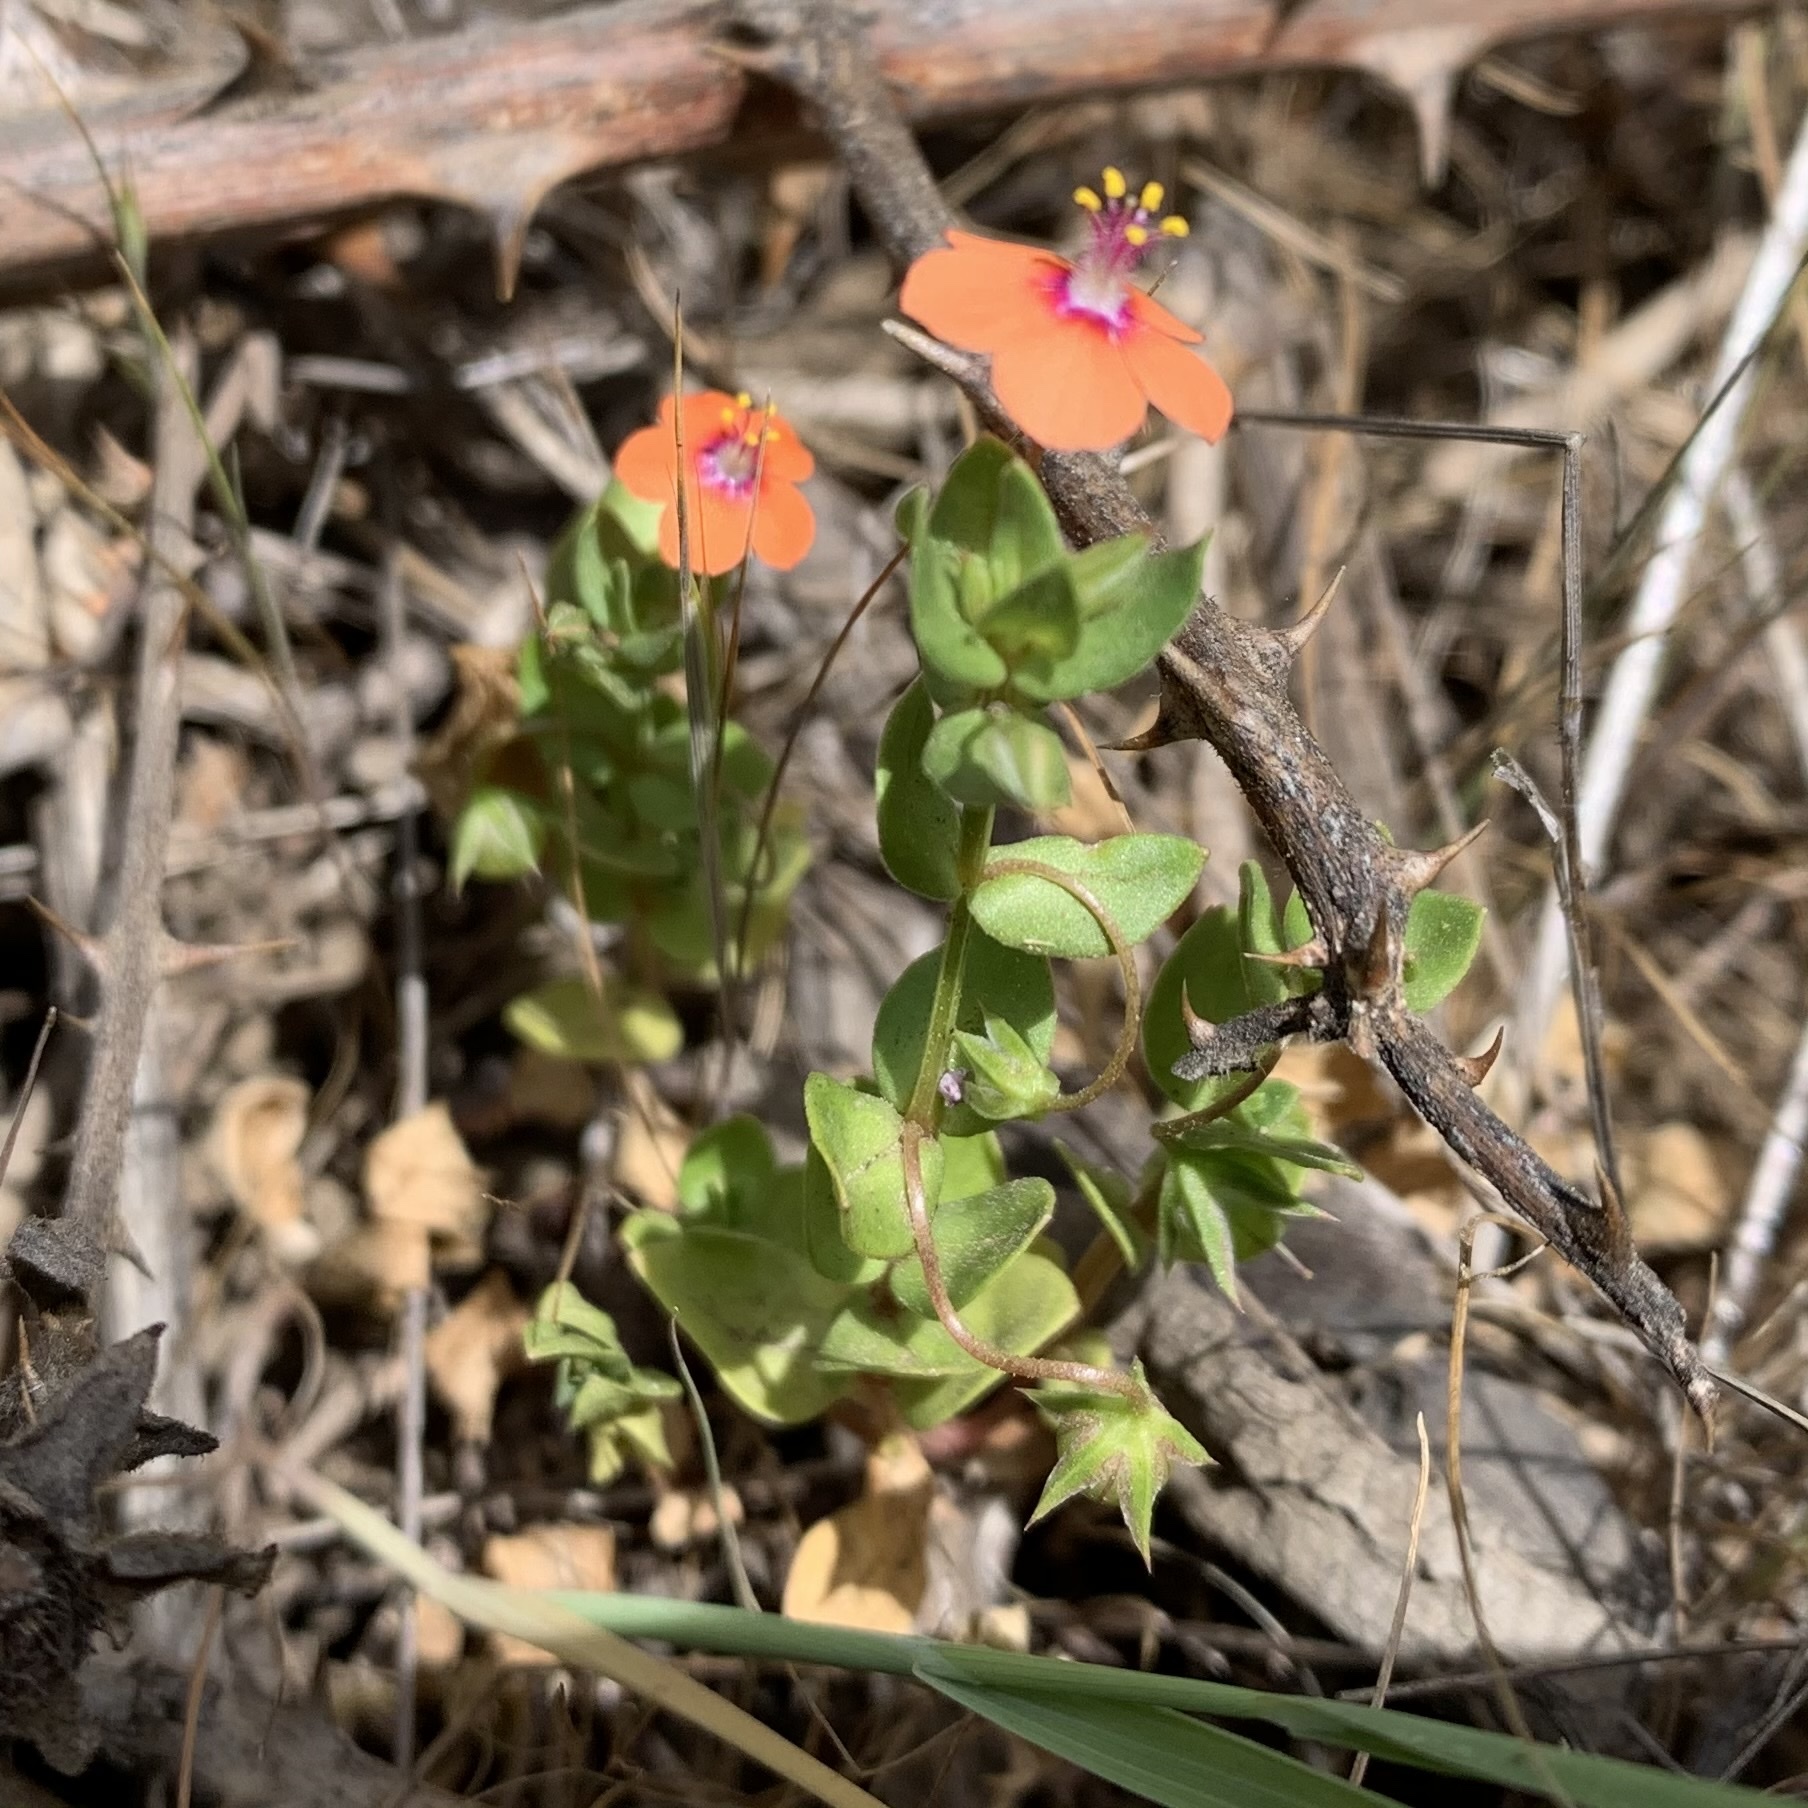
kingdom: Plantae
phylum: Tracheophyta
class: Magnoliopsida
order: Ericales
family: Primulaceae
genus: Lysimachia
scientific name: Lysimachia arvensis
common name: Scarlet pimpernel
